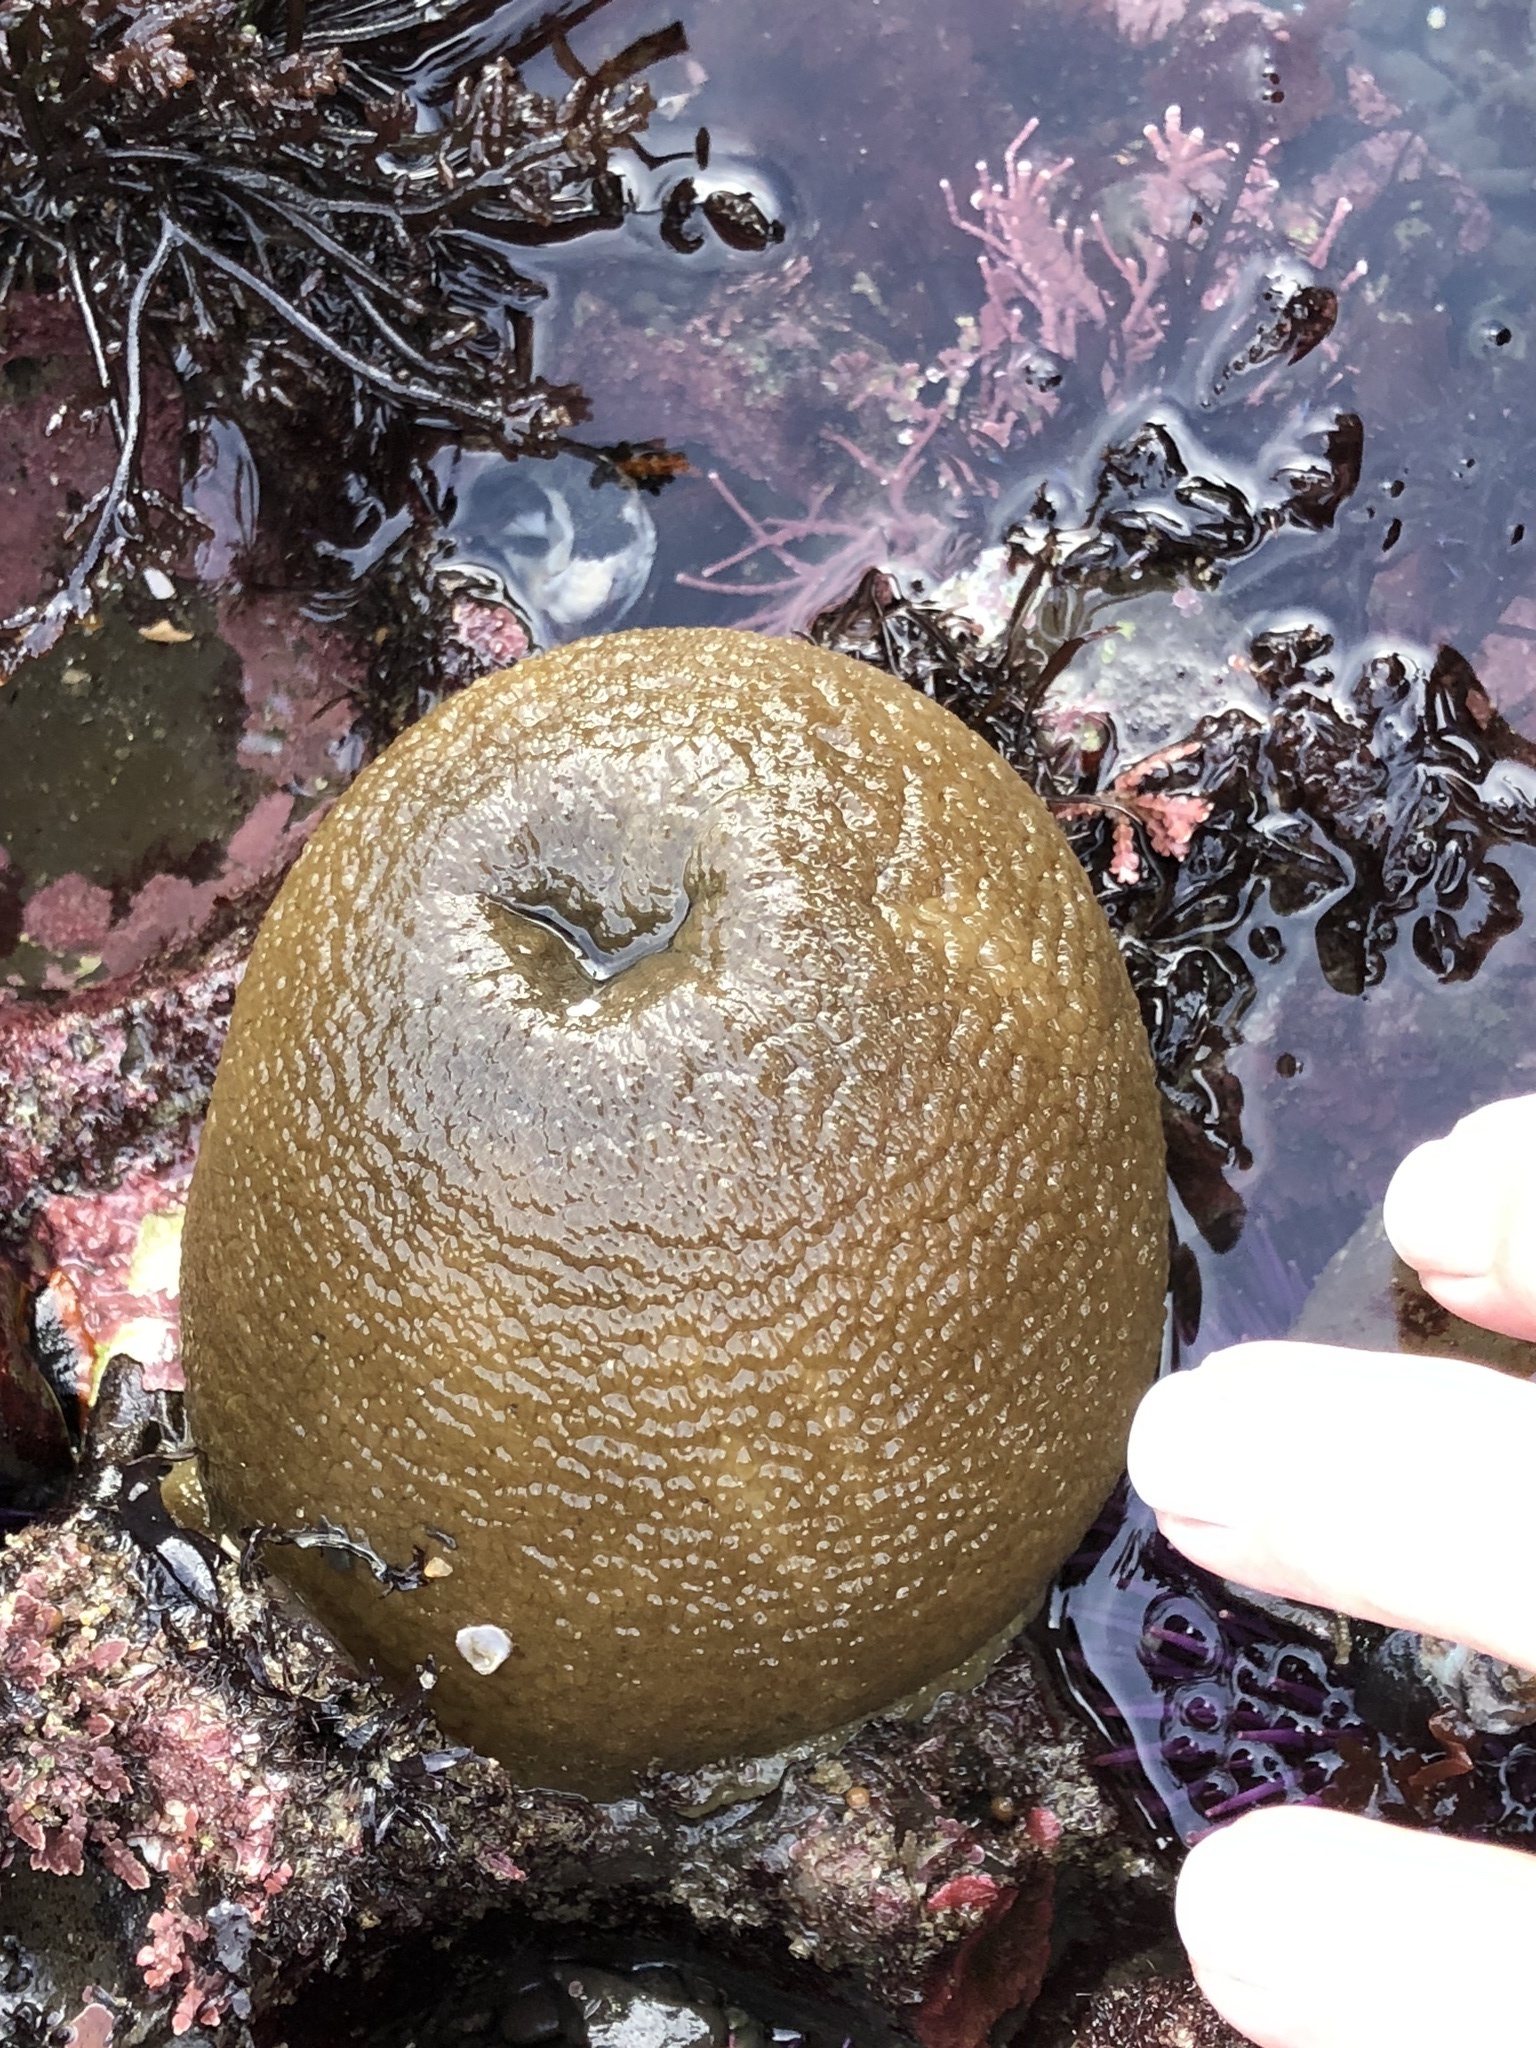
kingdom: Animalia
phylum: Cnidaria
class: Anthozoa
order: Actiniaria
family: Actiniidae
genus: Anthopleura
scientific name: Anthopleura xanthogrammica
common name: Giant green anemone
